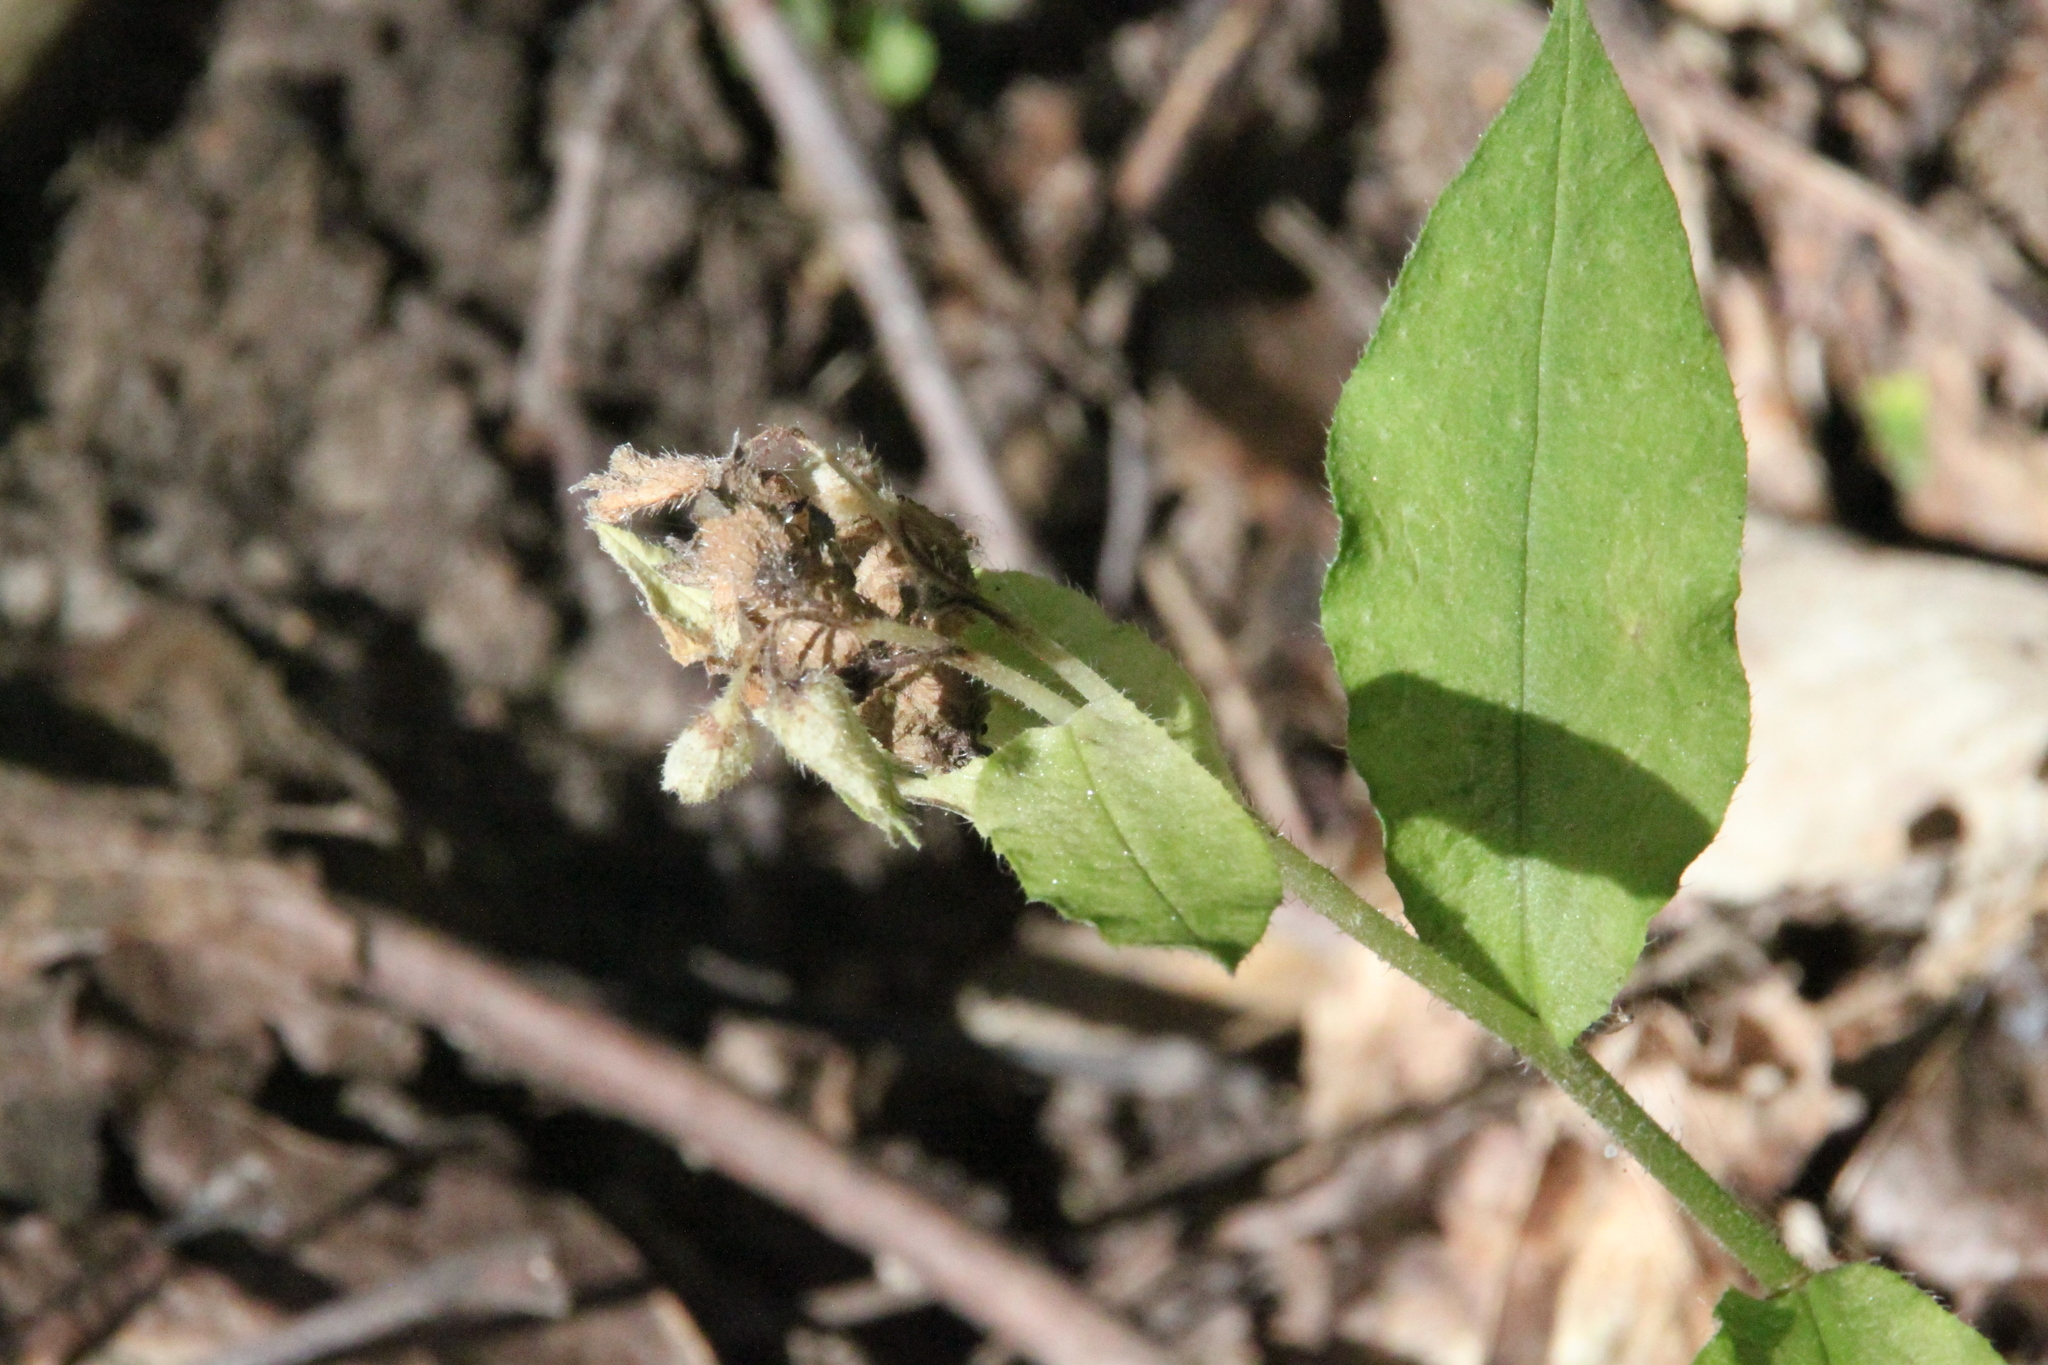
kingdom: Plantae
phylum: Tracheophyta
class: Magnoliopsida
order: Boraginales
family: Boraginaceae
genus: Pulmonaria
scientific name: Pulmonaria obscura
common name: Suffolk lungwort
